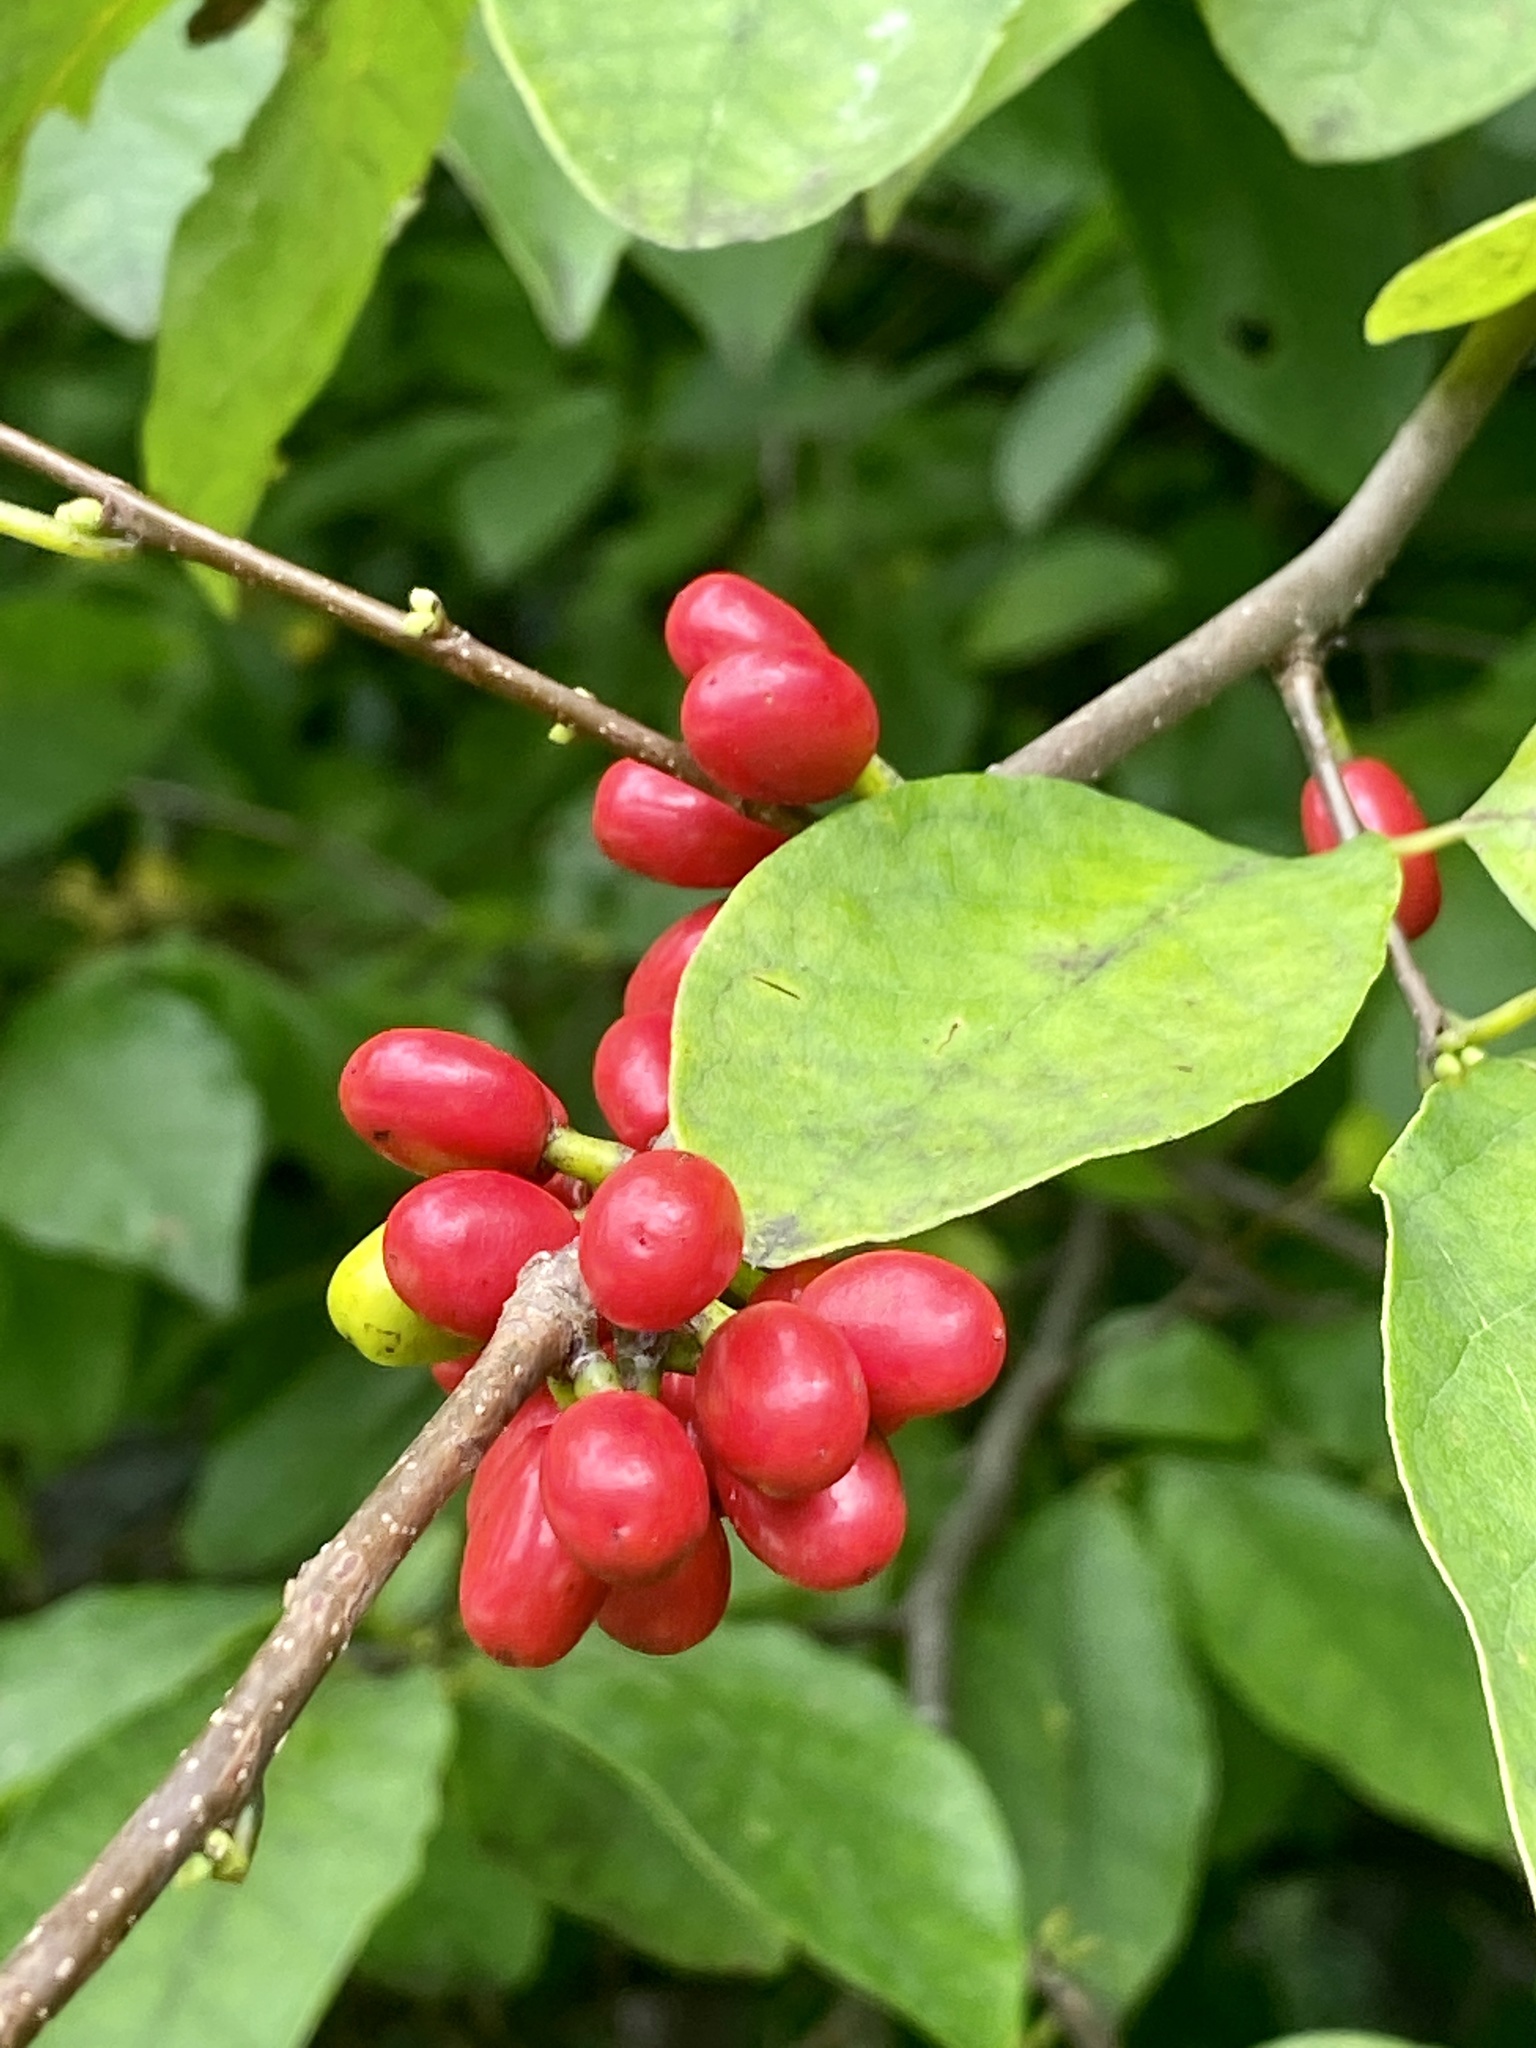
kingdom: Plantae
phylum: Tracheophyta
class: Magnoliopsida
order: Laurales
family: Lauraceae
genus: Lindera
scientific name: Lindera benzoin
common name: Spicebush
